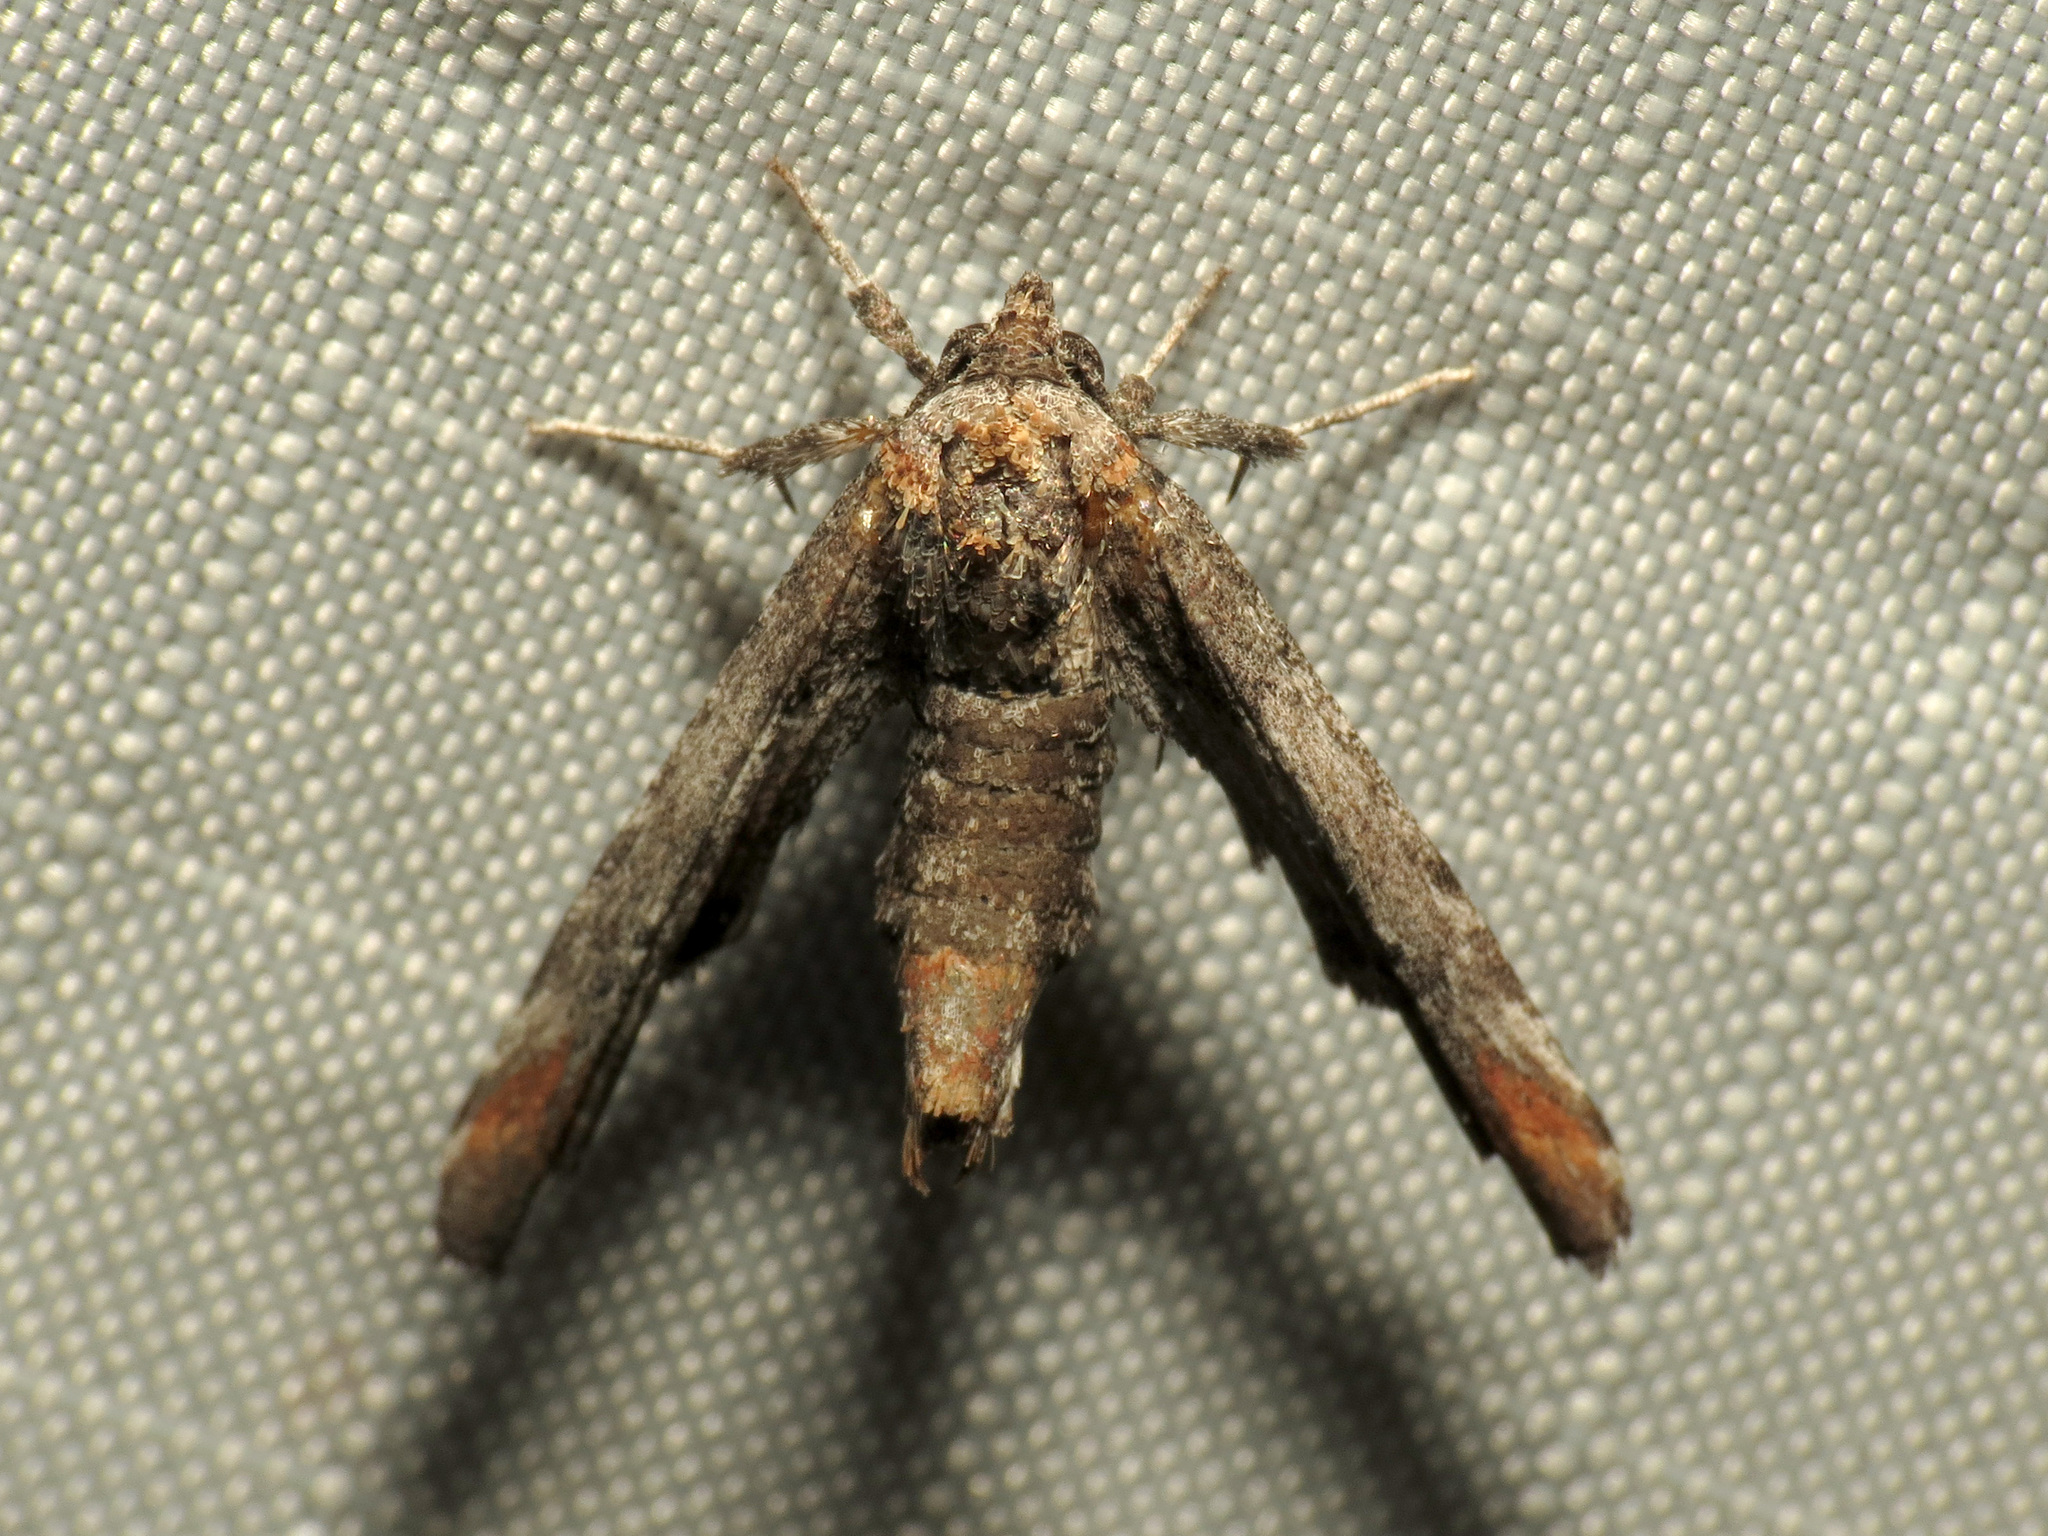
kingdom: Animalia
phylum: Arthropoda
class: Insecta
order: Lepidoptera
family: Euteliidae
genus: Marathyssa
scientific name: Marathyssa inficita
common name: Dark marathyssa moth
